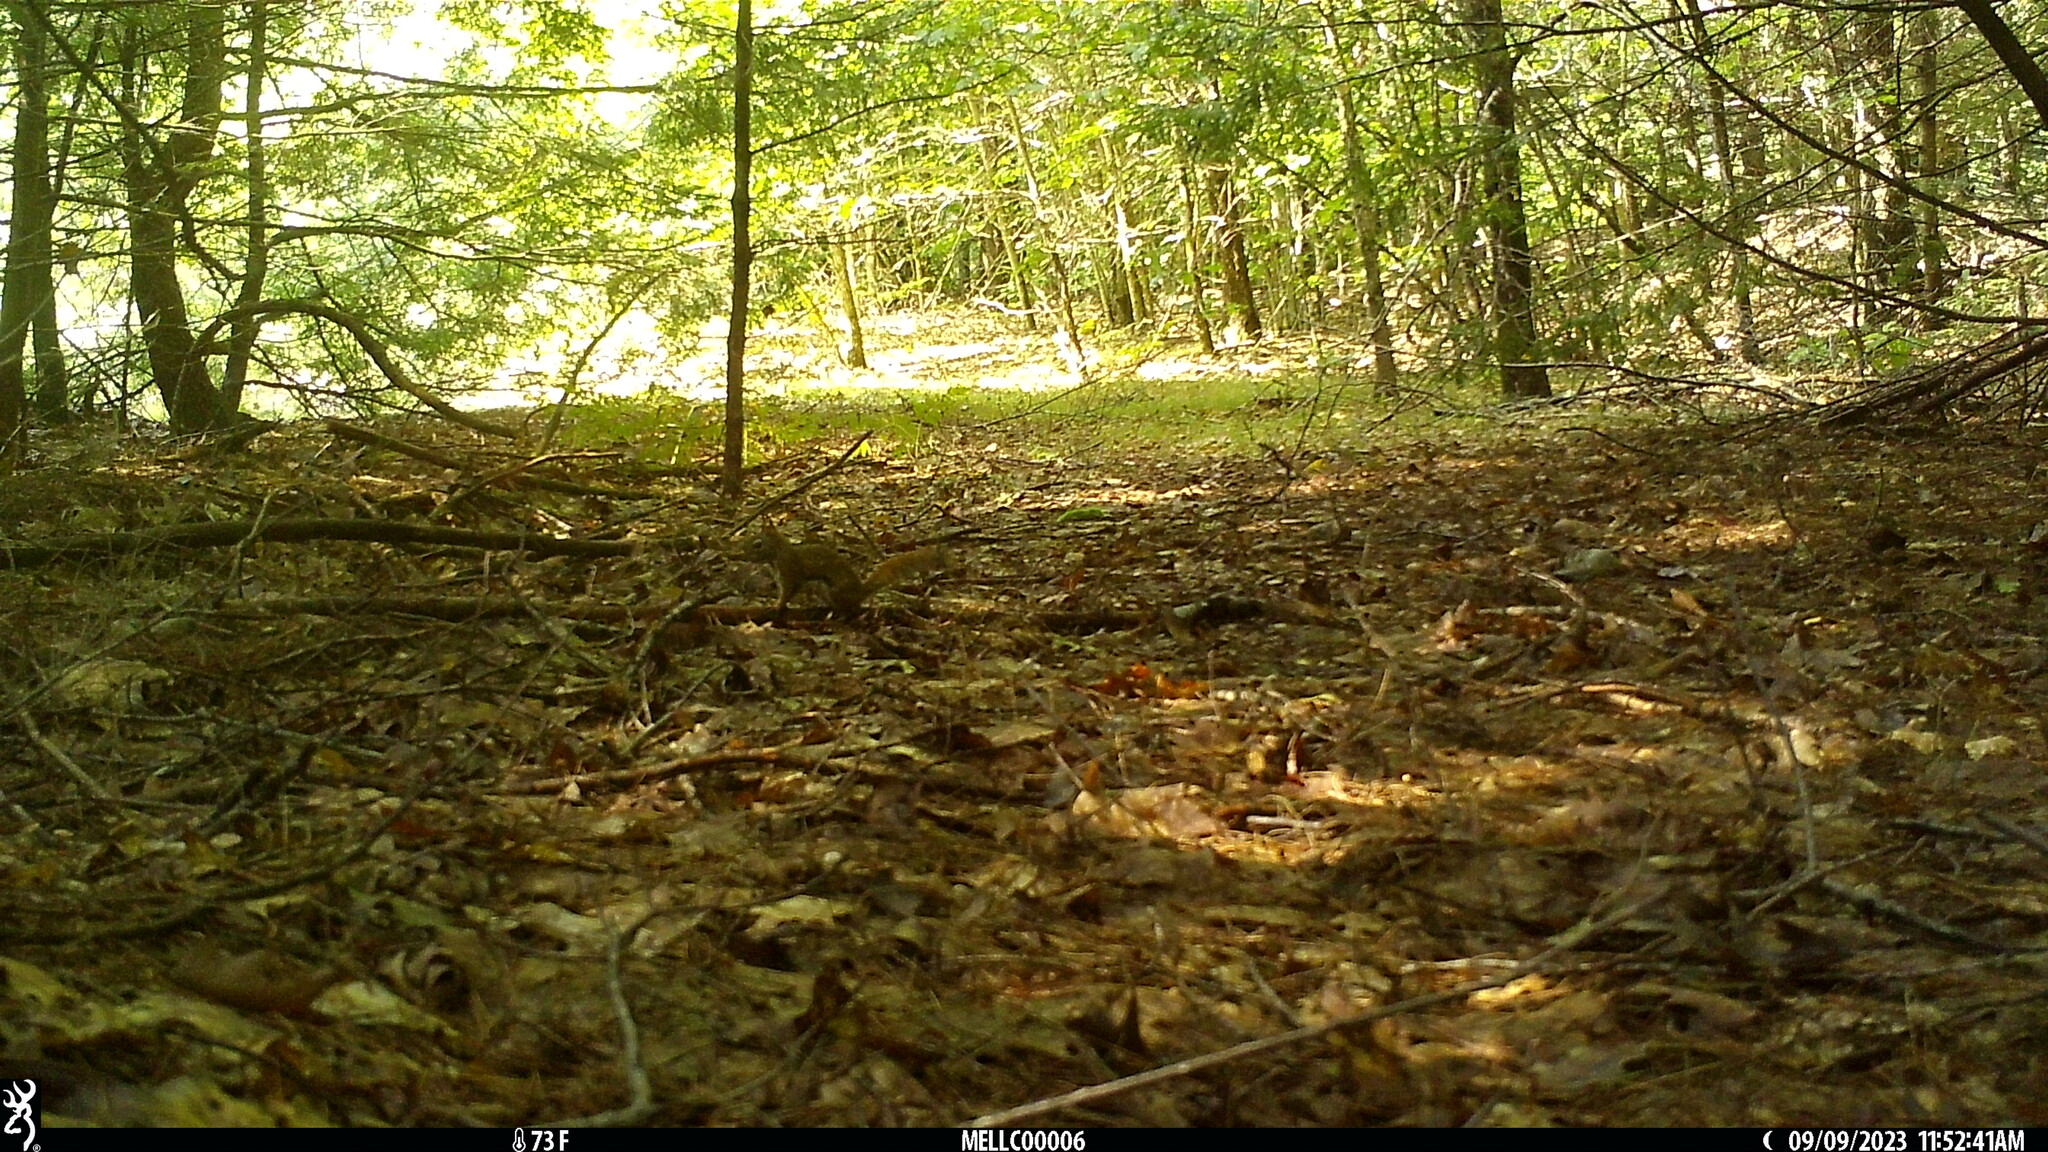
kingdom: Animalia
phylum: Chordata
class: Mammalia
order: Rodentia
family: Sciuridae
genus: Tamiasciurus
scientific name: Tamiasciurus hudsonicus
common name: Red squirrel
